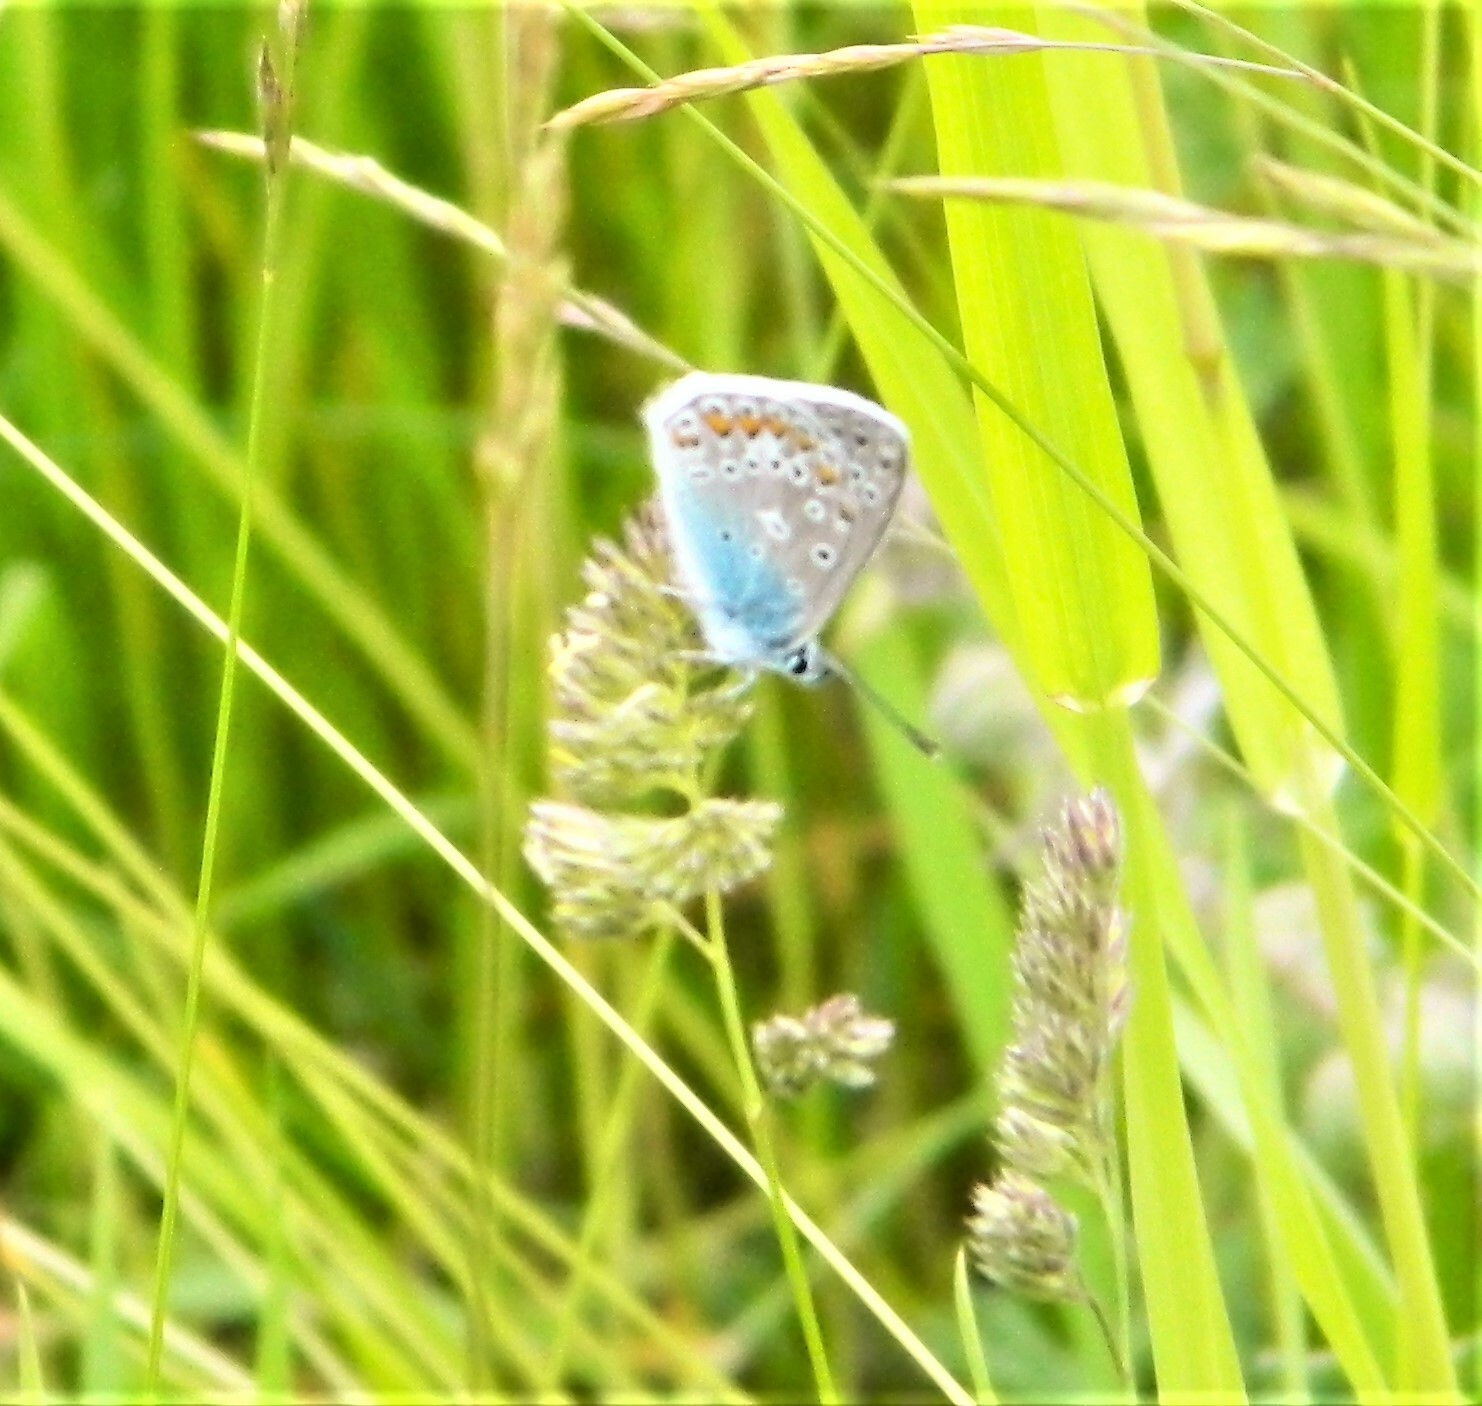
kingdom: Animalia
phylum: Arthropoda
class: Insecta
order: Lepidoptera
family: Lycaenidae
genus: Polyommatus
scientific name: Polyommatus icarus
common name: Common blue
